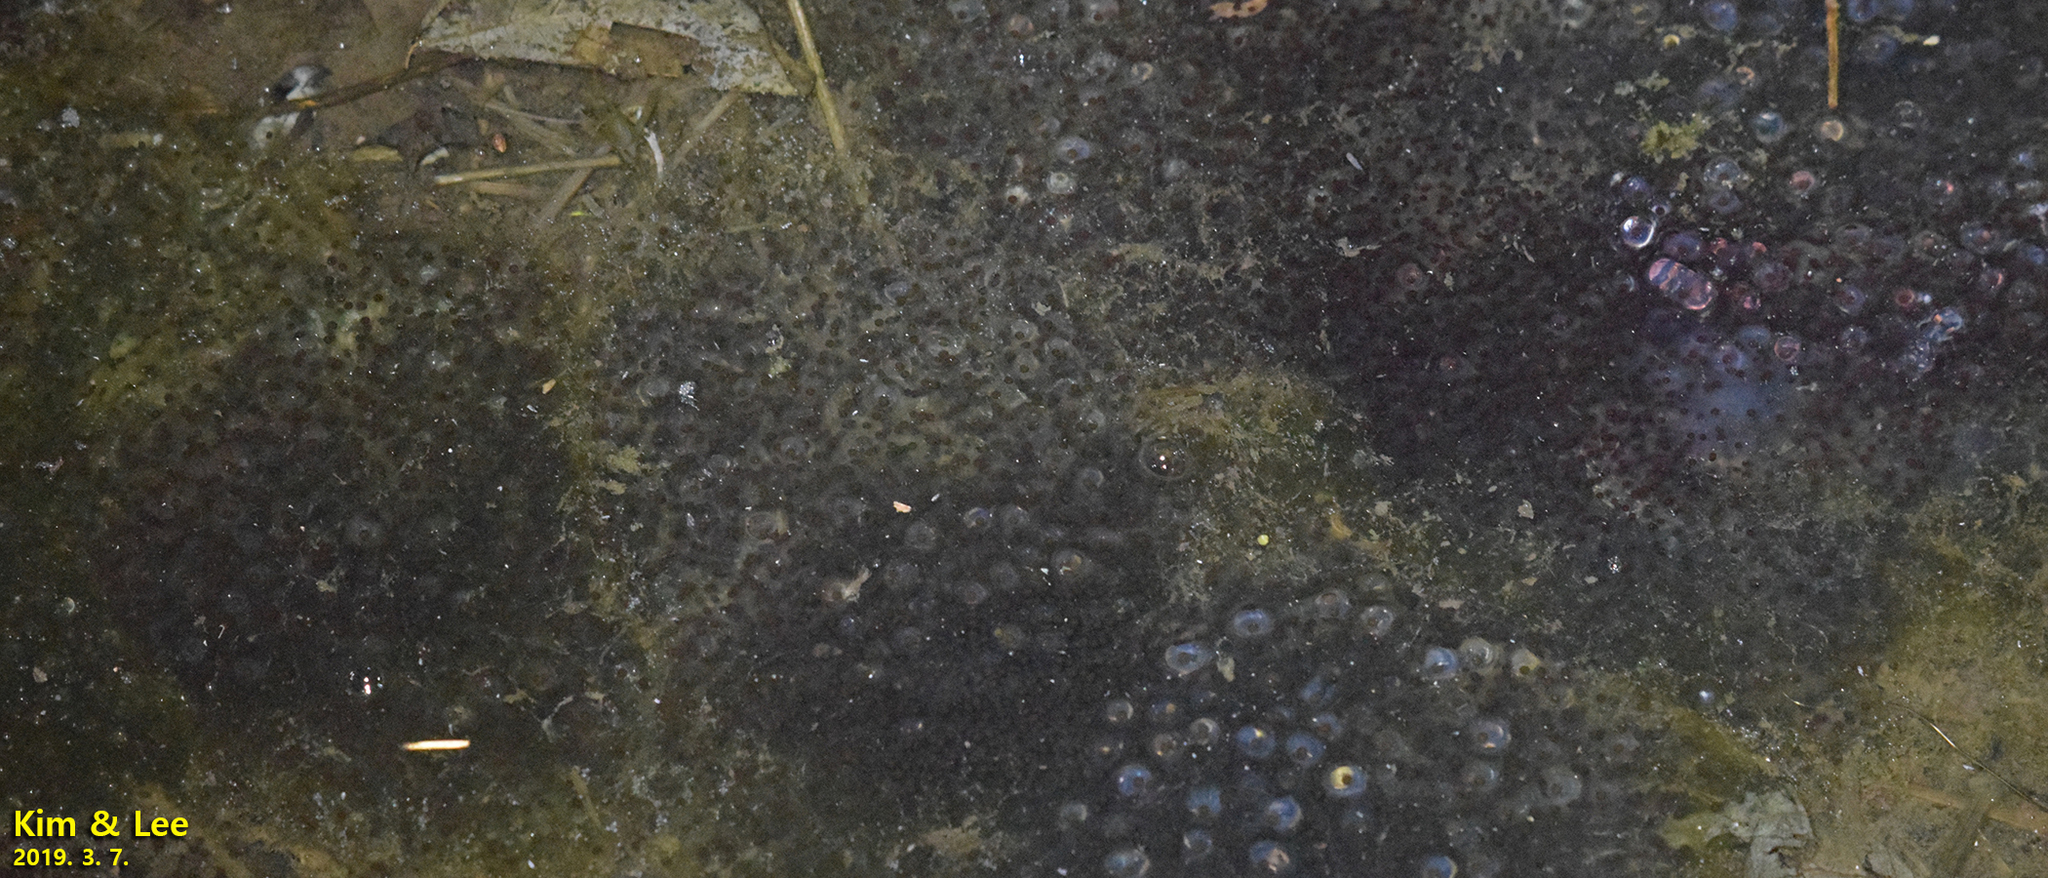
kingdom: Animalia
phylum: Chordata
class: Amphibia
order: Anura
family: Ranidae
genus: Rana
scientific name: Rana uenoi
